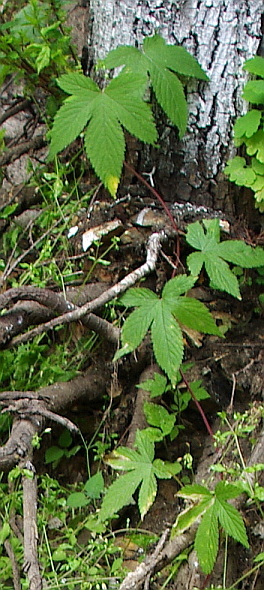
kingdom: Plantae
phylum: Tracheophyta
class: Magnoliopsida
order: Rosales
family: Cannabaceae
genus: Humulus
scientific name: Humulus scandens
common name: Japanese hop
